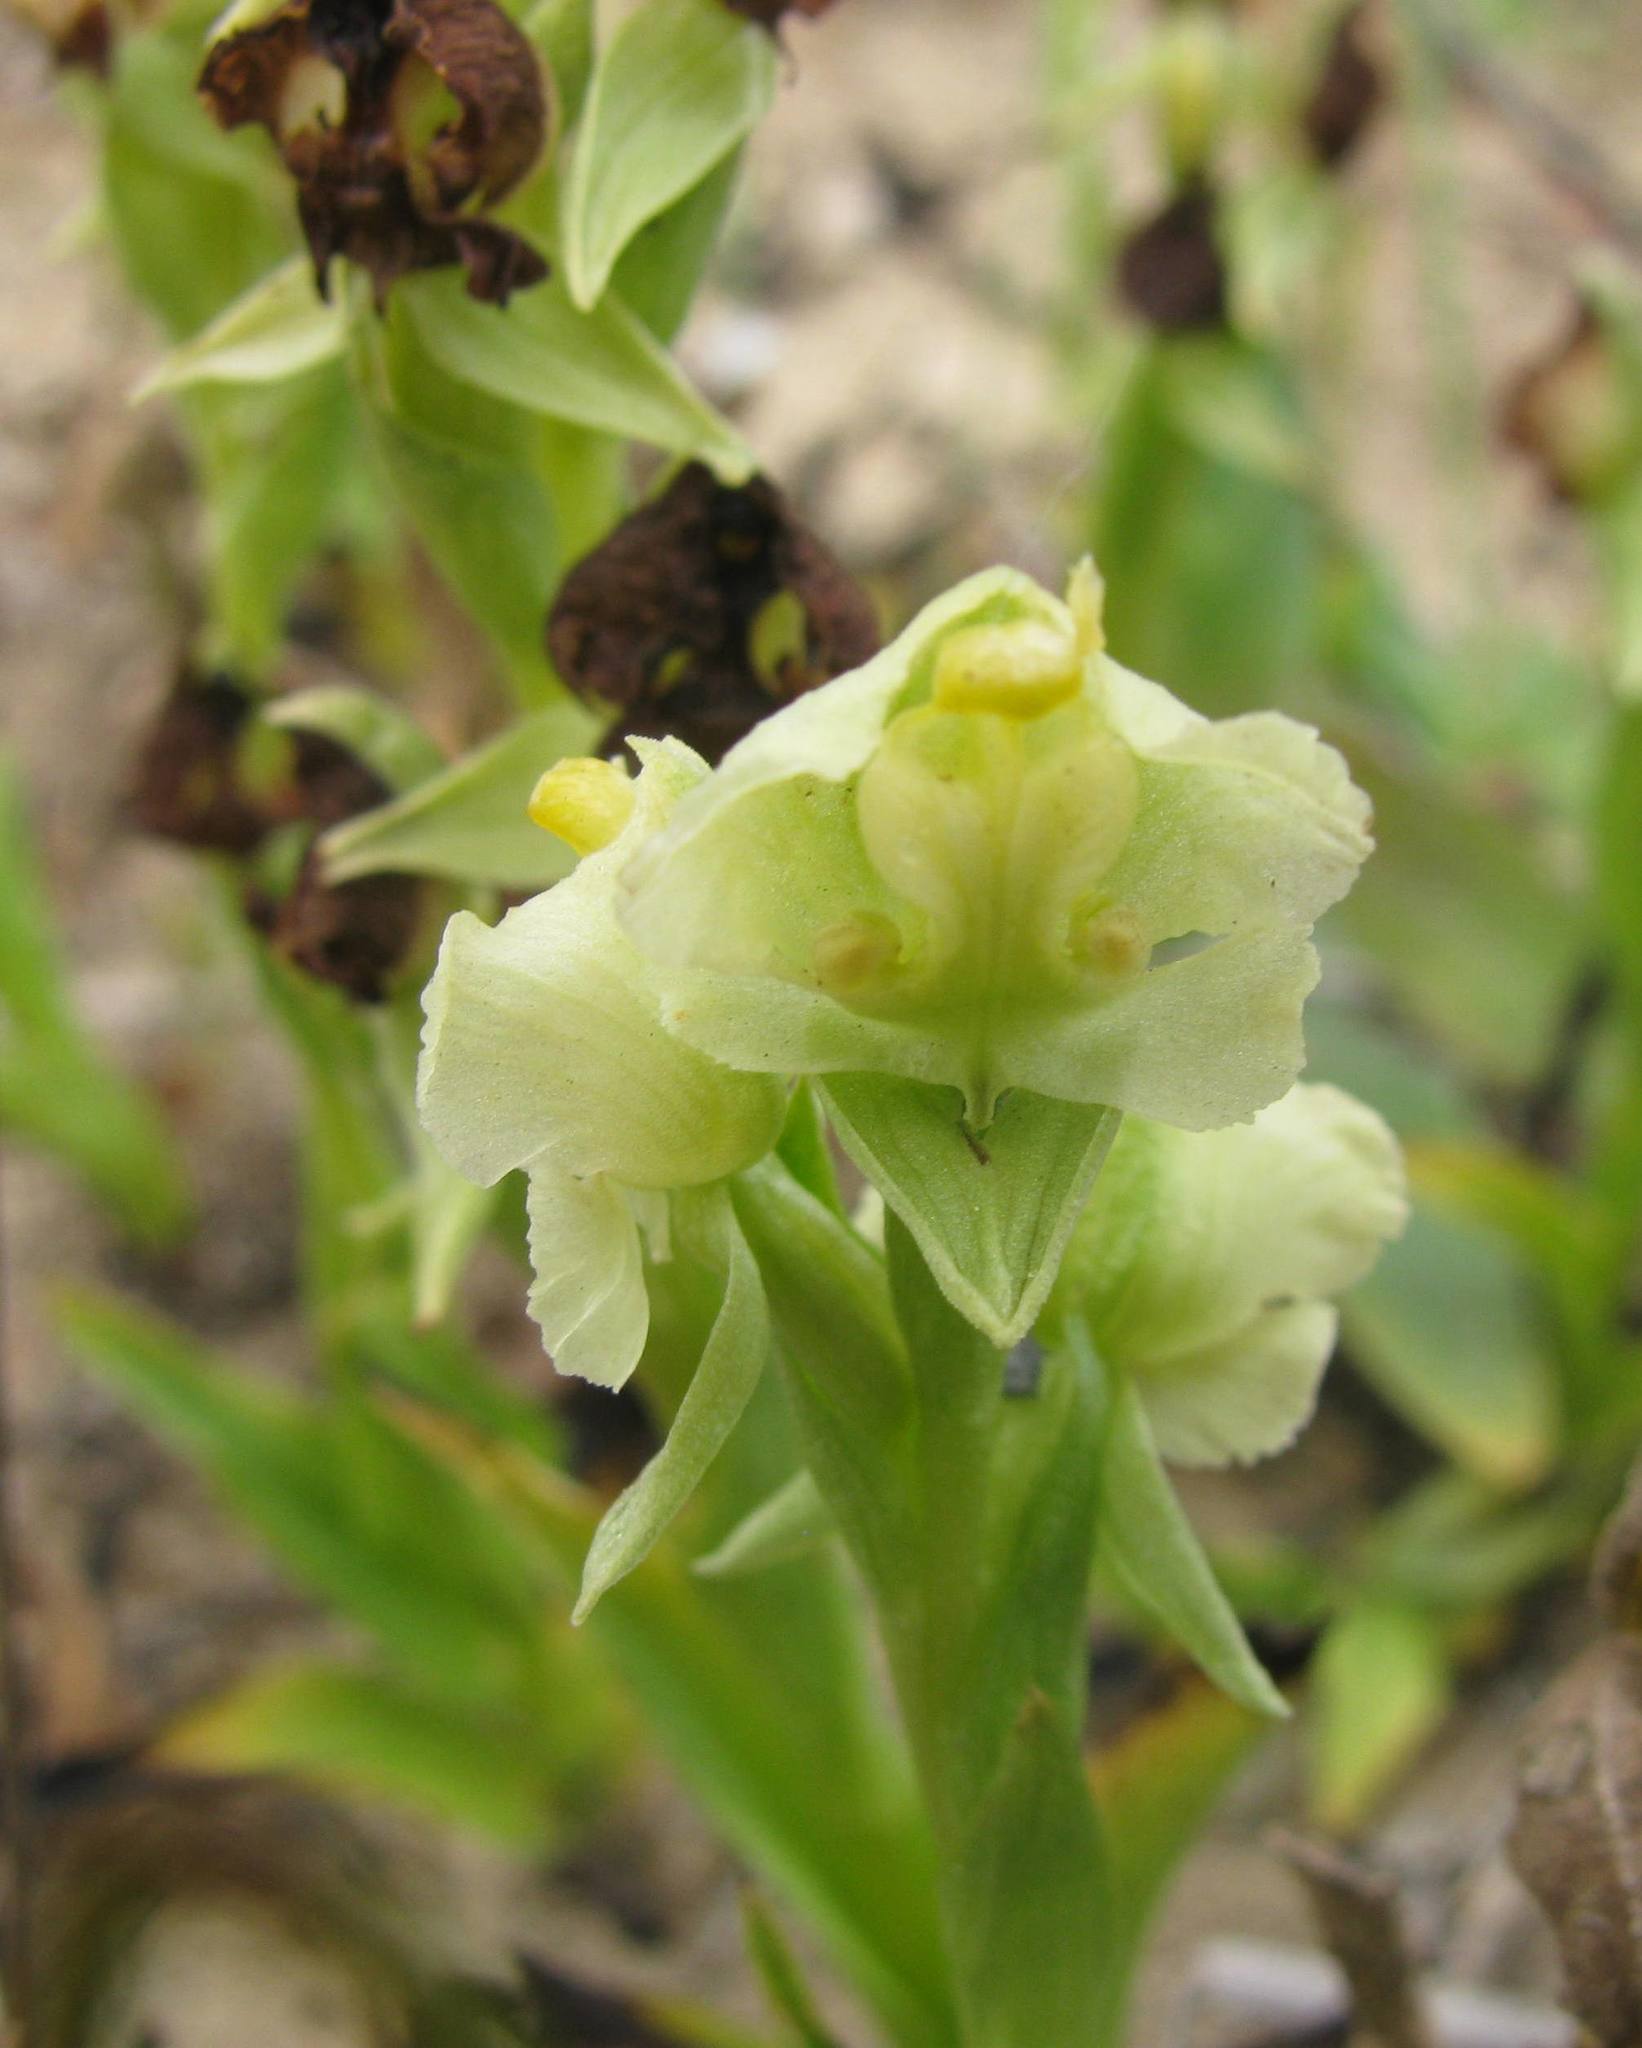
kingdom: Plantae
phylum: Tracheophyta
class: Liliopsida
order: Asparagales
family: Orchidaceae
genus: Pterygodium
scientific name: Pterygodium alatum
